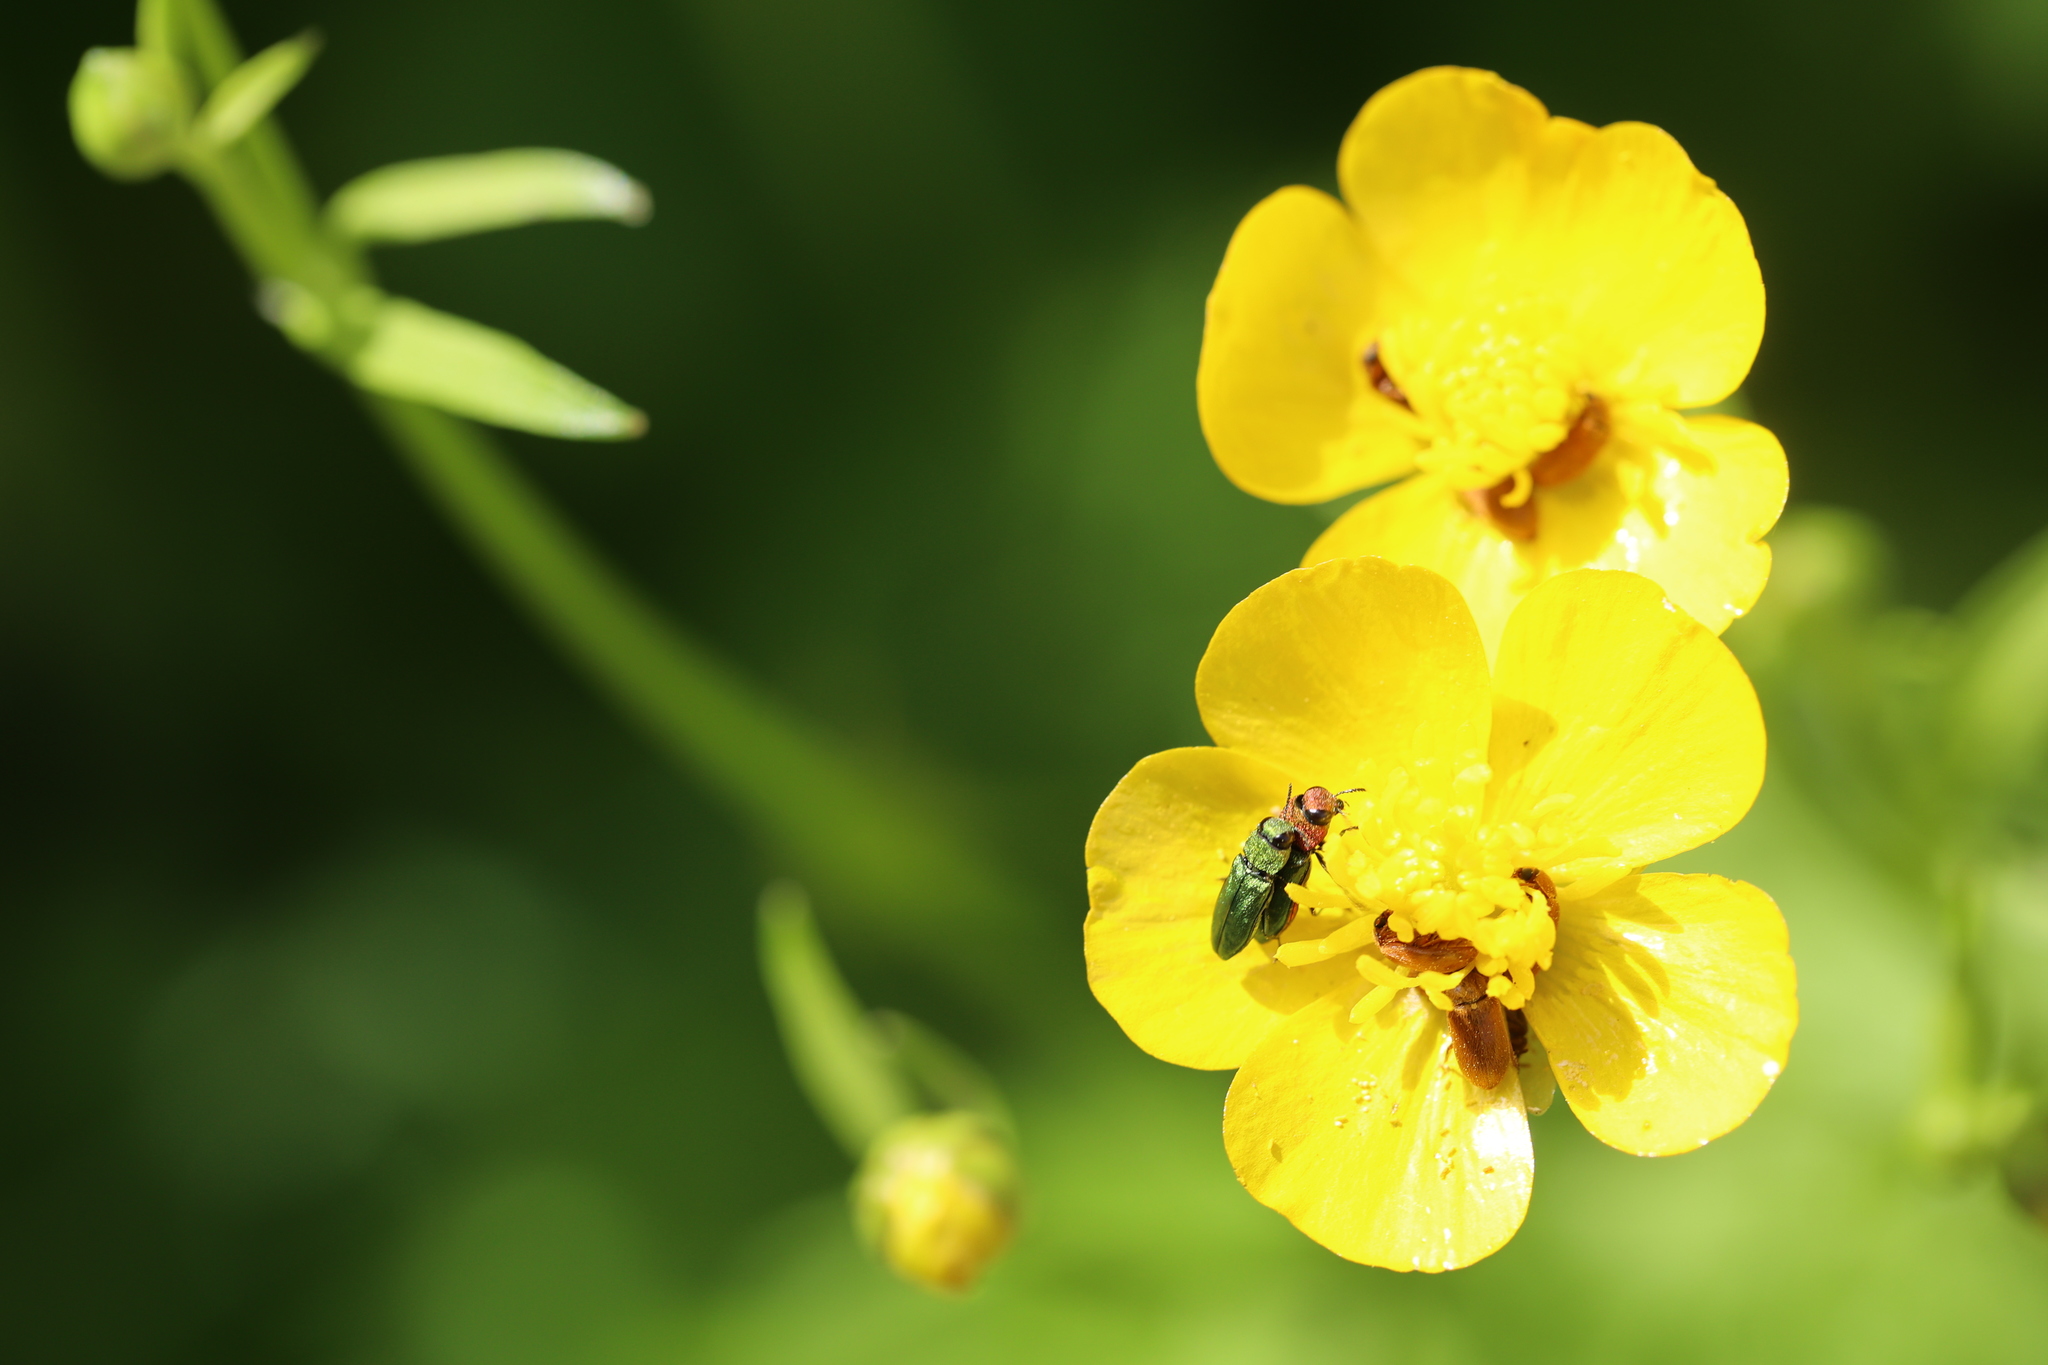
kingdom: Animalia
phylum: Arthropoda
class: Insecta
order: Coleoptera
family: Buprestidae
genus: Anthaxia
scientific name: Anthaxia nitidula
